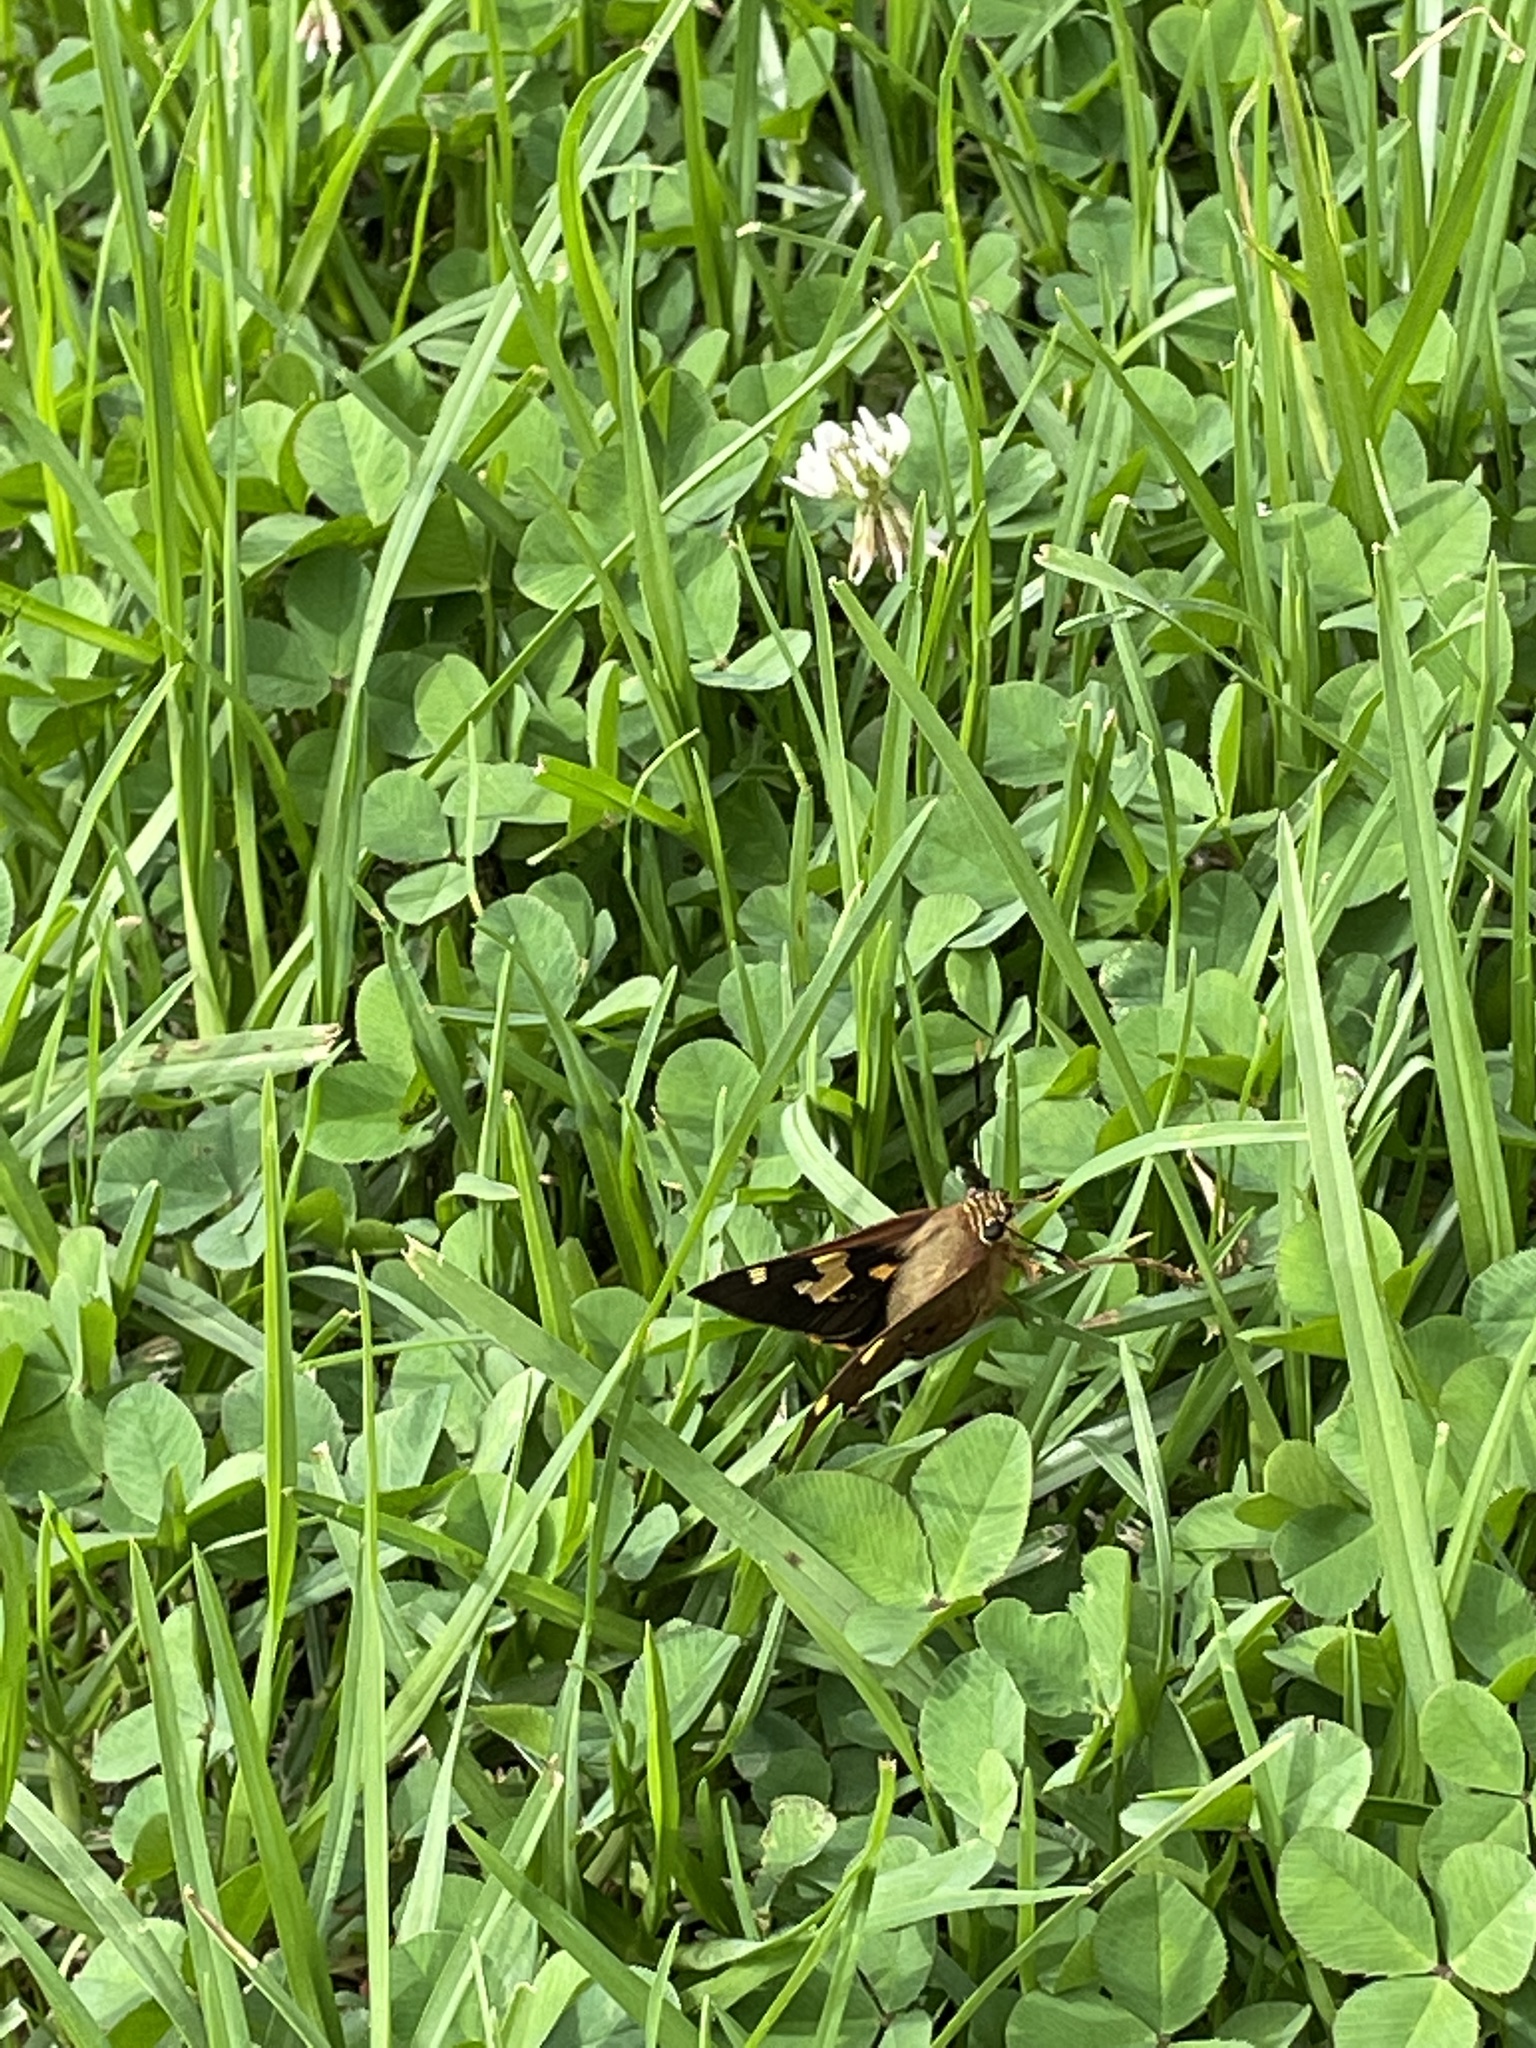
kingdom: Animalia
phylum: Arthropoda
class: Insecta
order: Lepidoptera
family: Hesperiidae
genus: Trapezites
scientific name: Trapezites symmomus
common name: Splendid ochre
